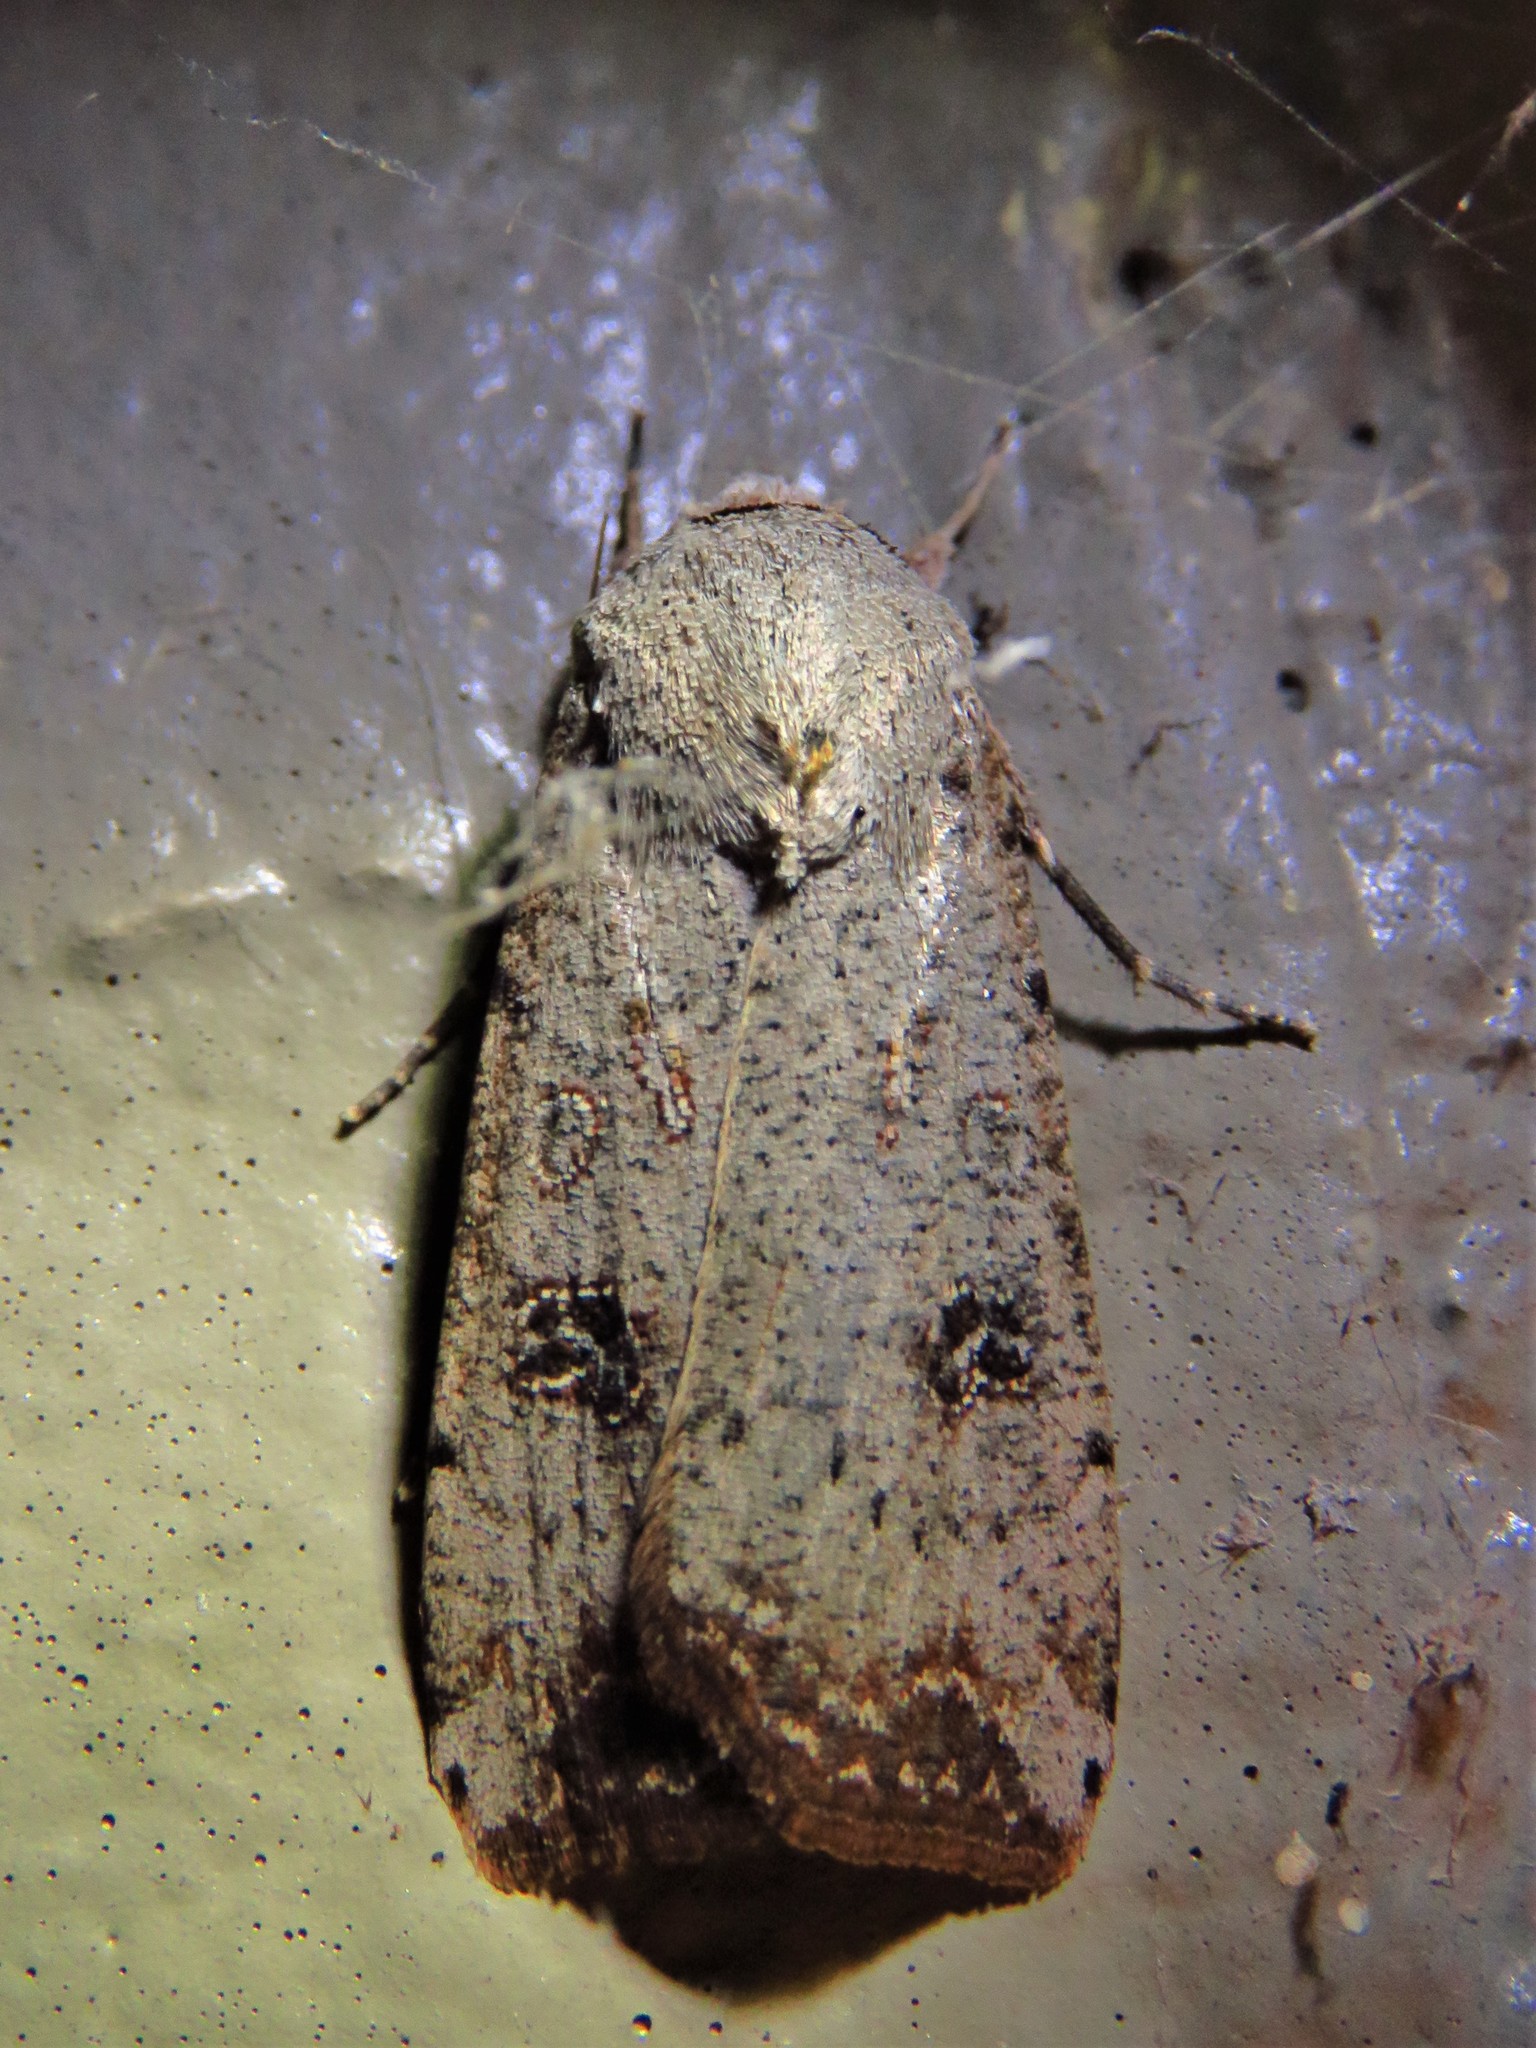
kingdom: Animalia
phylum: Arthropoda
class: Insecta
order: Lepidoptera
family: Noctuidae
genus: Anicla
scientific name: Anicla infecta
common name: Green cutworm
